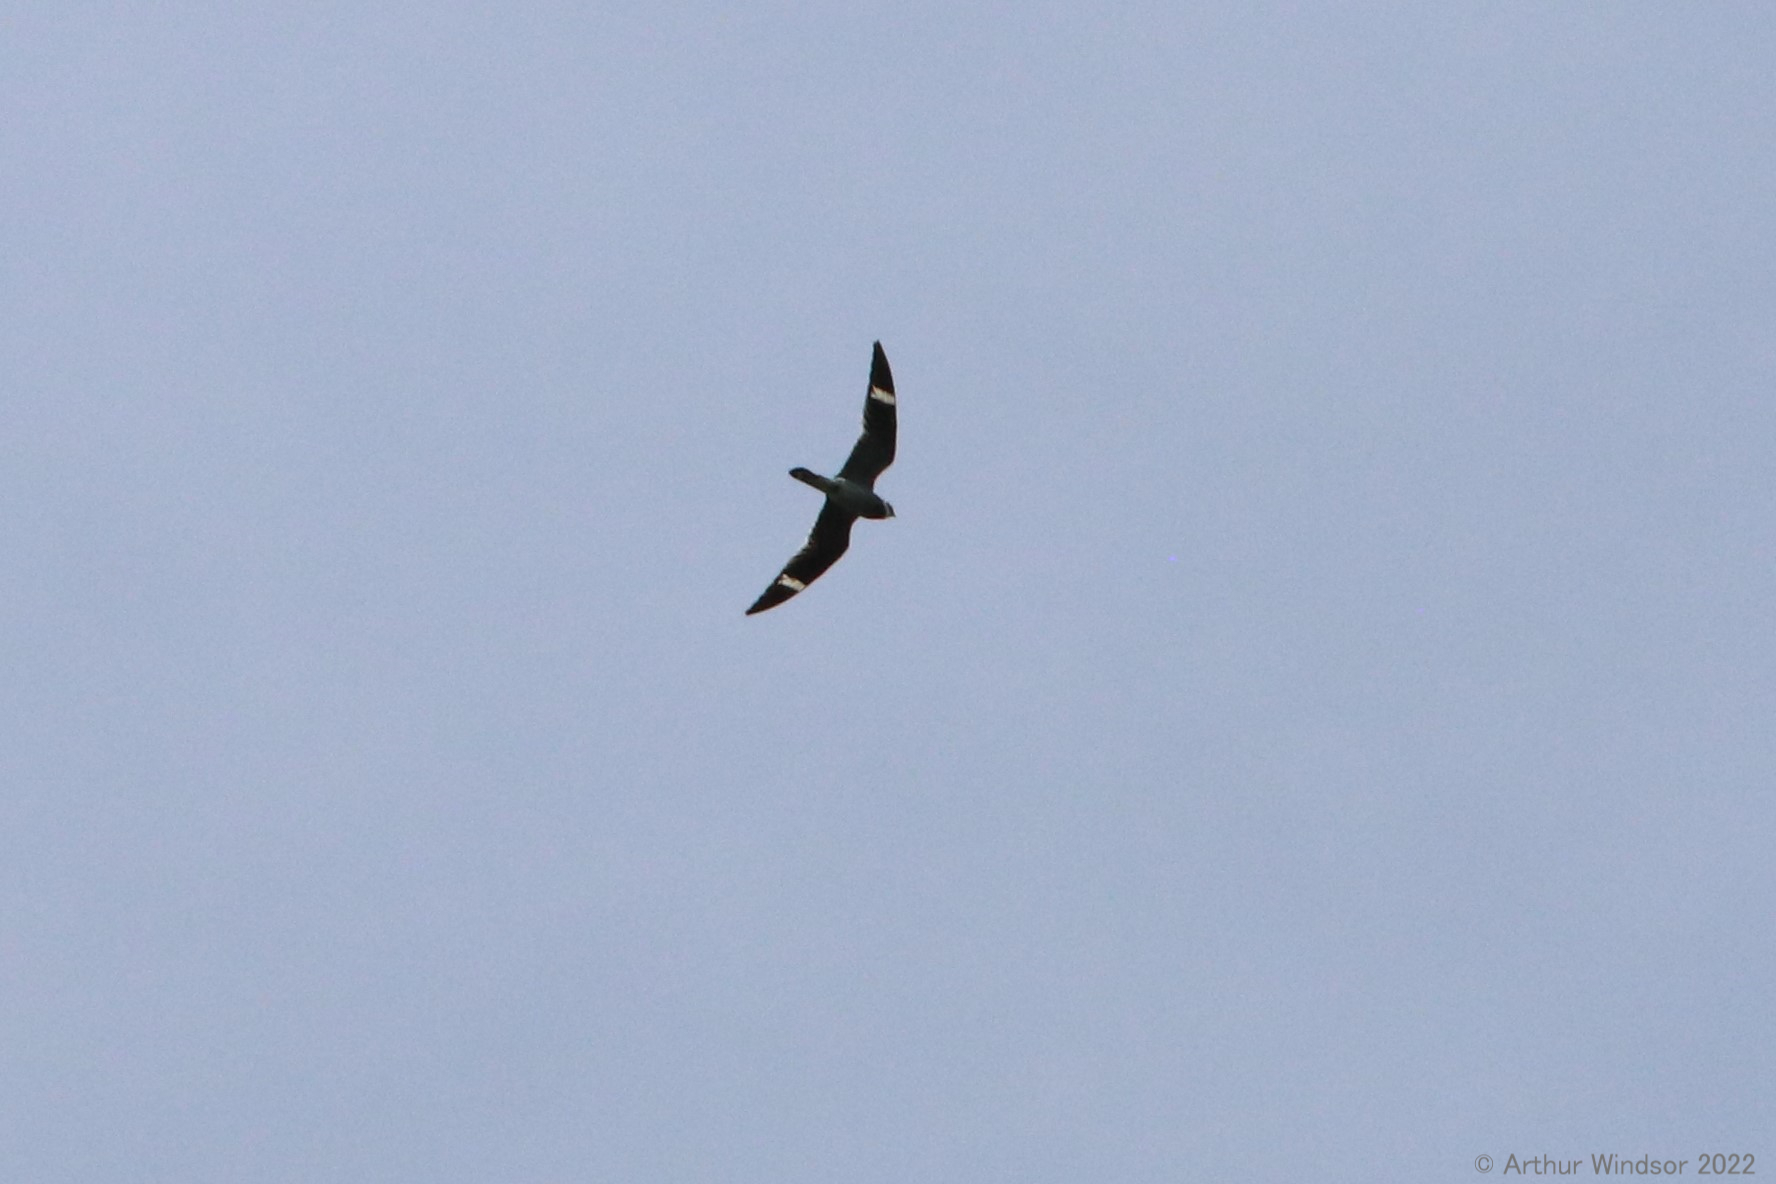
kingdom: Animalia
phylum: Chordata
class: Aves
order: Caprimulgiformes
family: Caprimulgidae
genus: Chordeiles
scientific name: Chordeiles minor
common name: Common nighthawk
